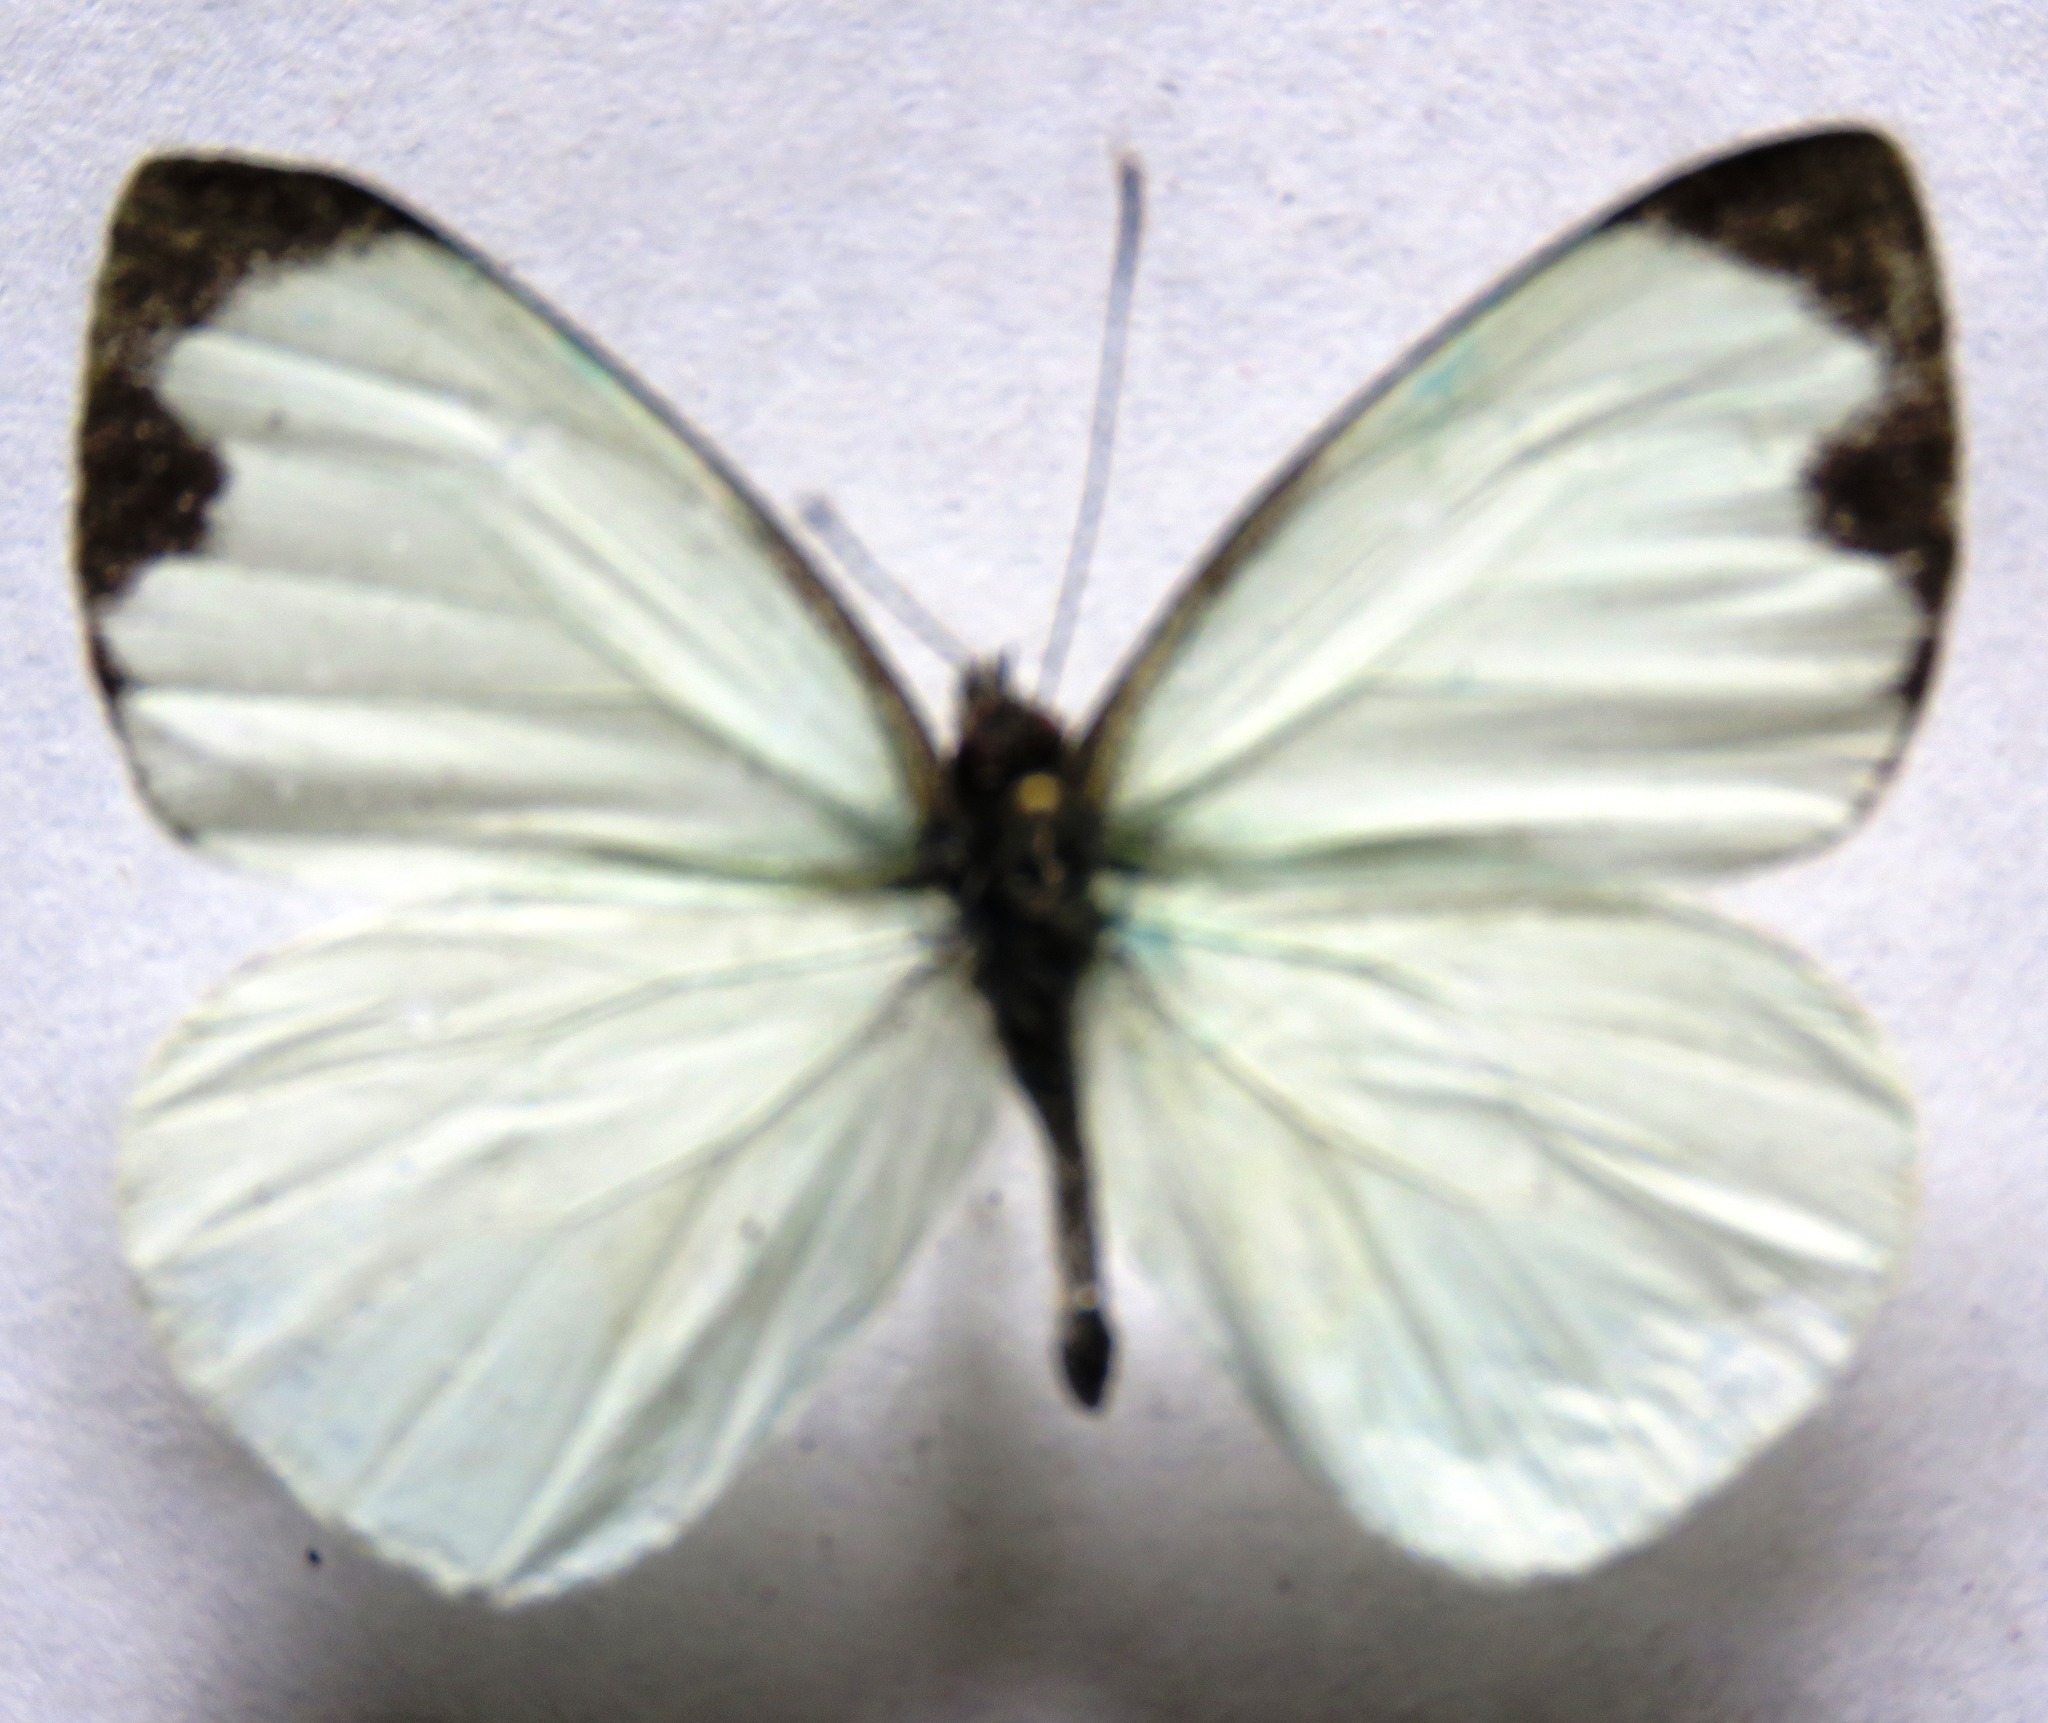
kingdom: Animalia
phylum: Arthropoda
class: Insecta
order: Lepidoptera
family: Pieridae
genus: Leptophobia
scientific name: Leptophobia aripa
